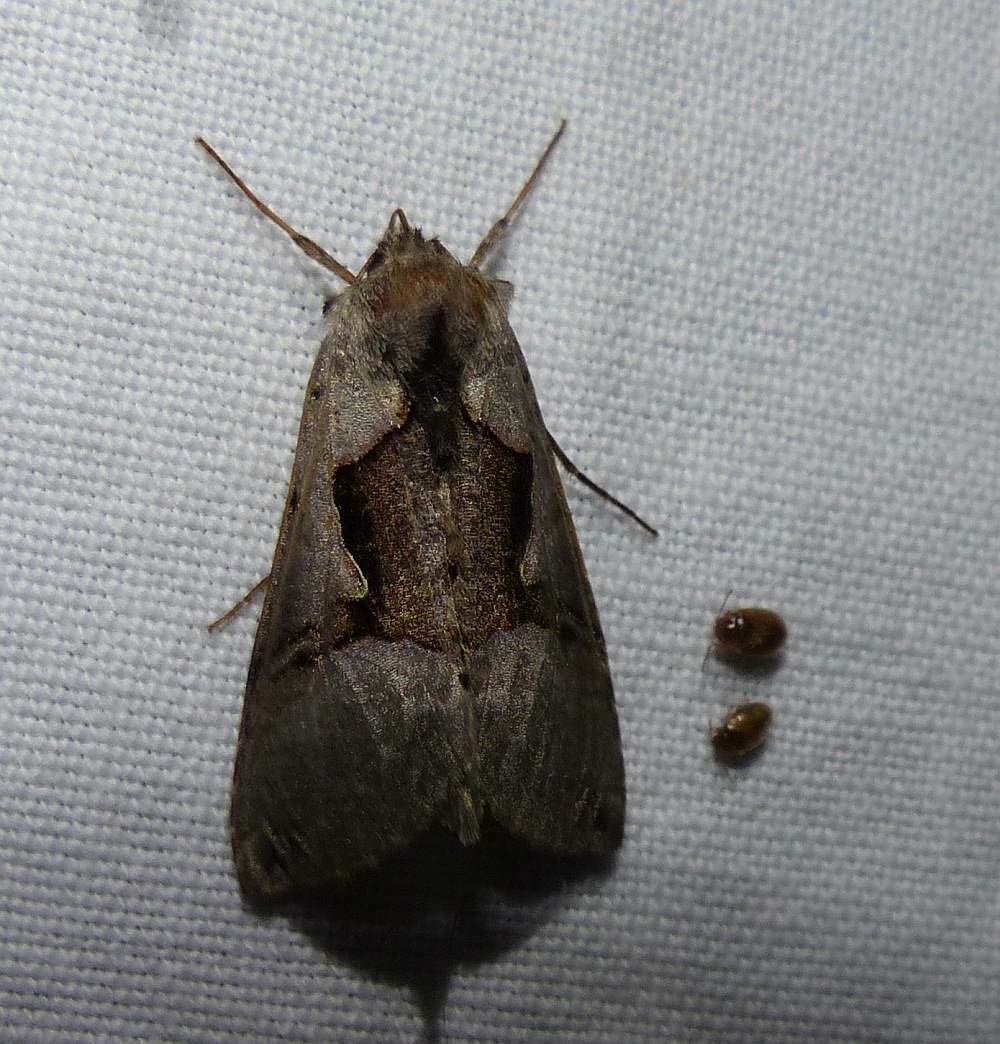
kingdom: Animalia
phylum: Arthropoda
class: Insecta
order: Lepidoptera
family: Noctuidae
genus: Autographa
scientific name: Autographa ampla
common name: Large looper moth
